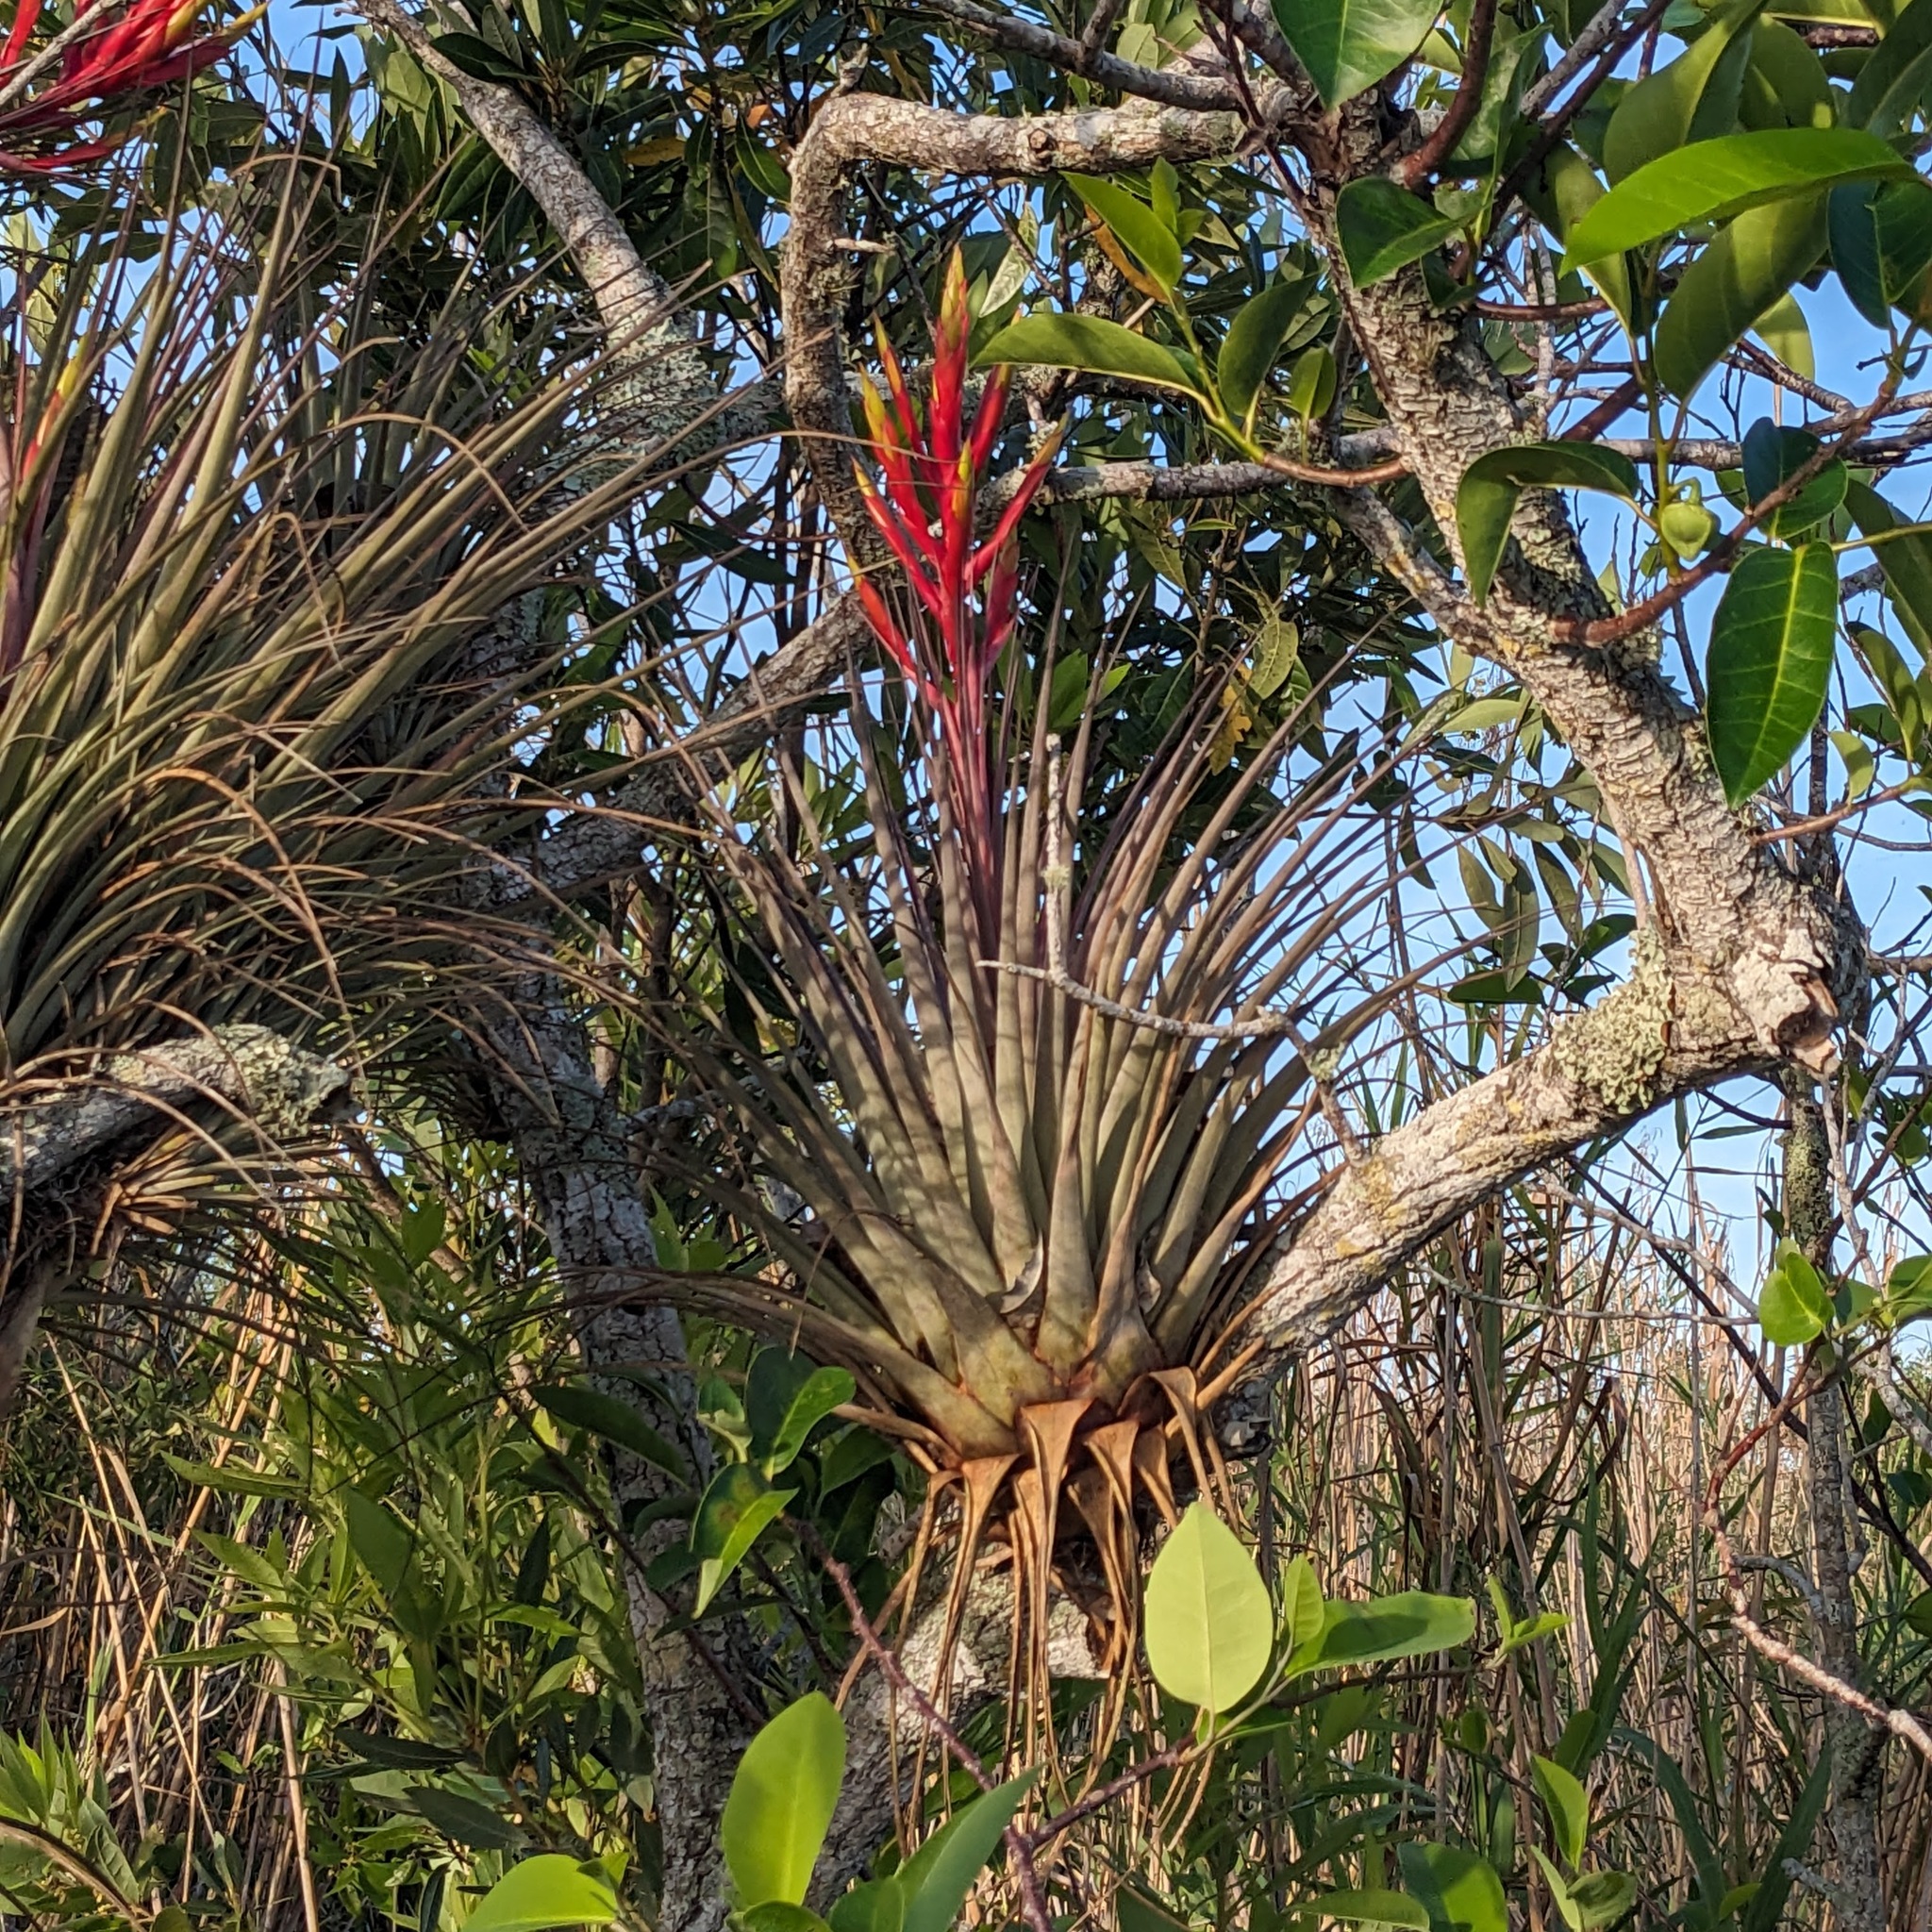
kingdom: Plantae
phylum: Tracheophyta
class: Liliopsida
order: Poales
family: Bromeliaceae
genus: Tillandsia
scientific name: Tillandsia fasciculata
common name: Giant airplant
